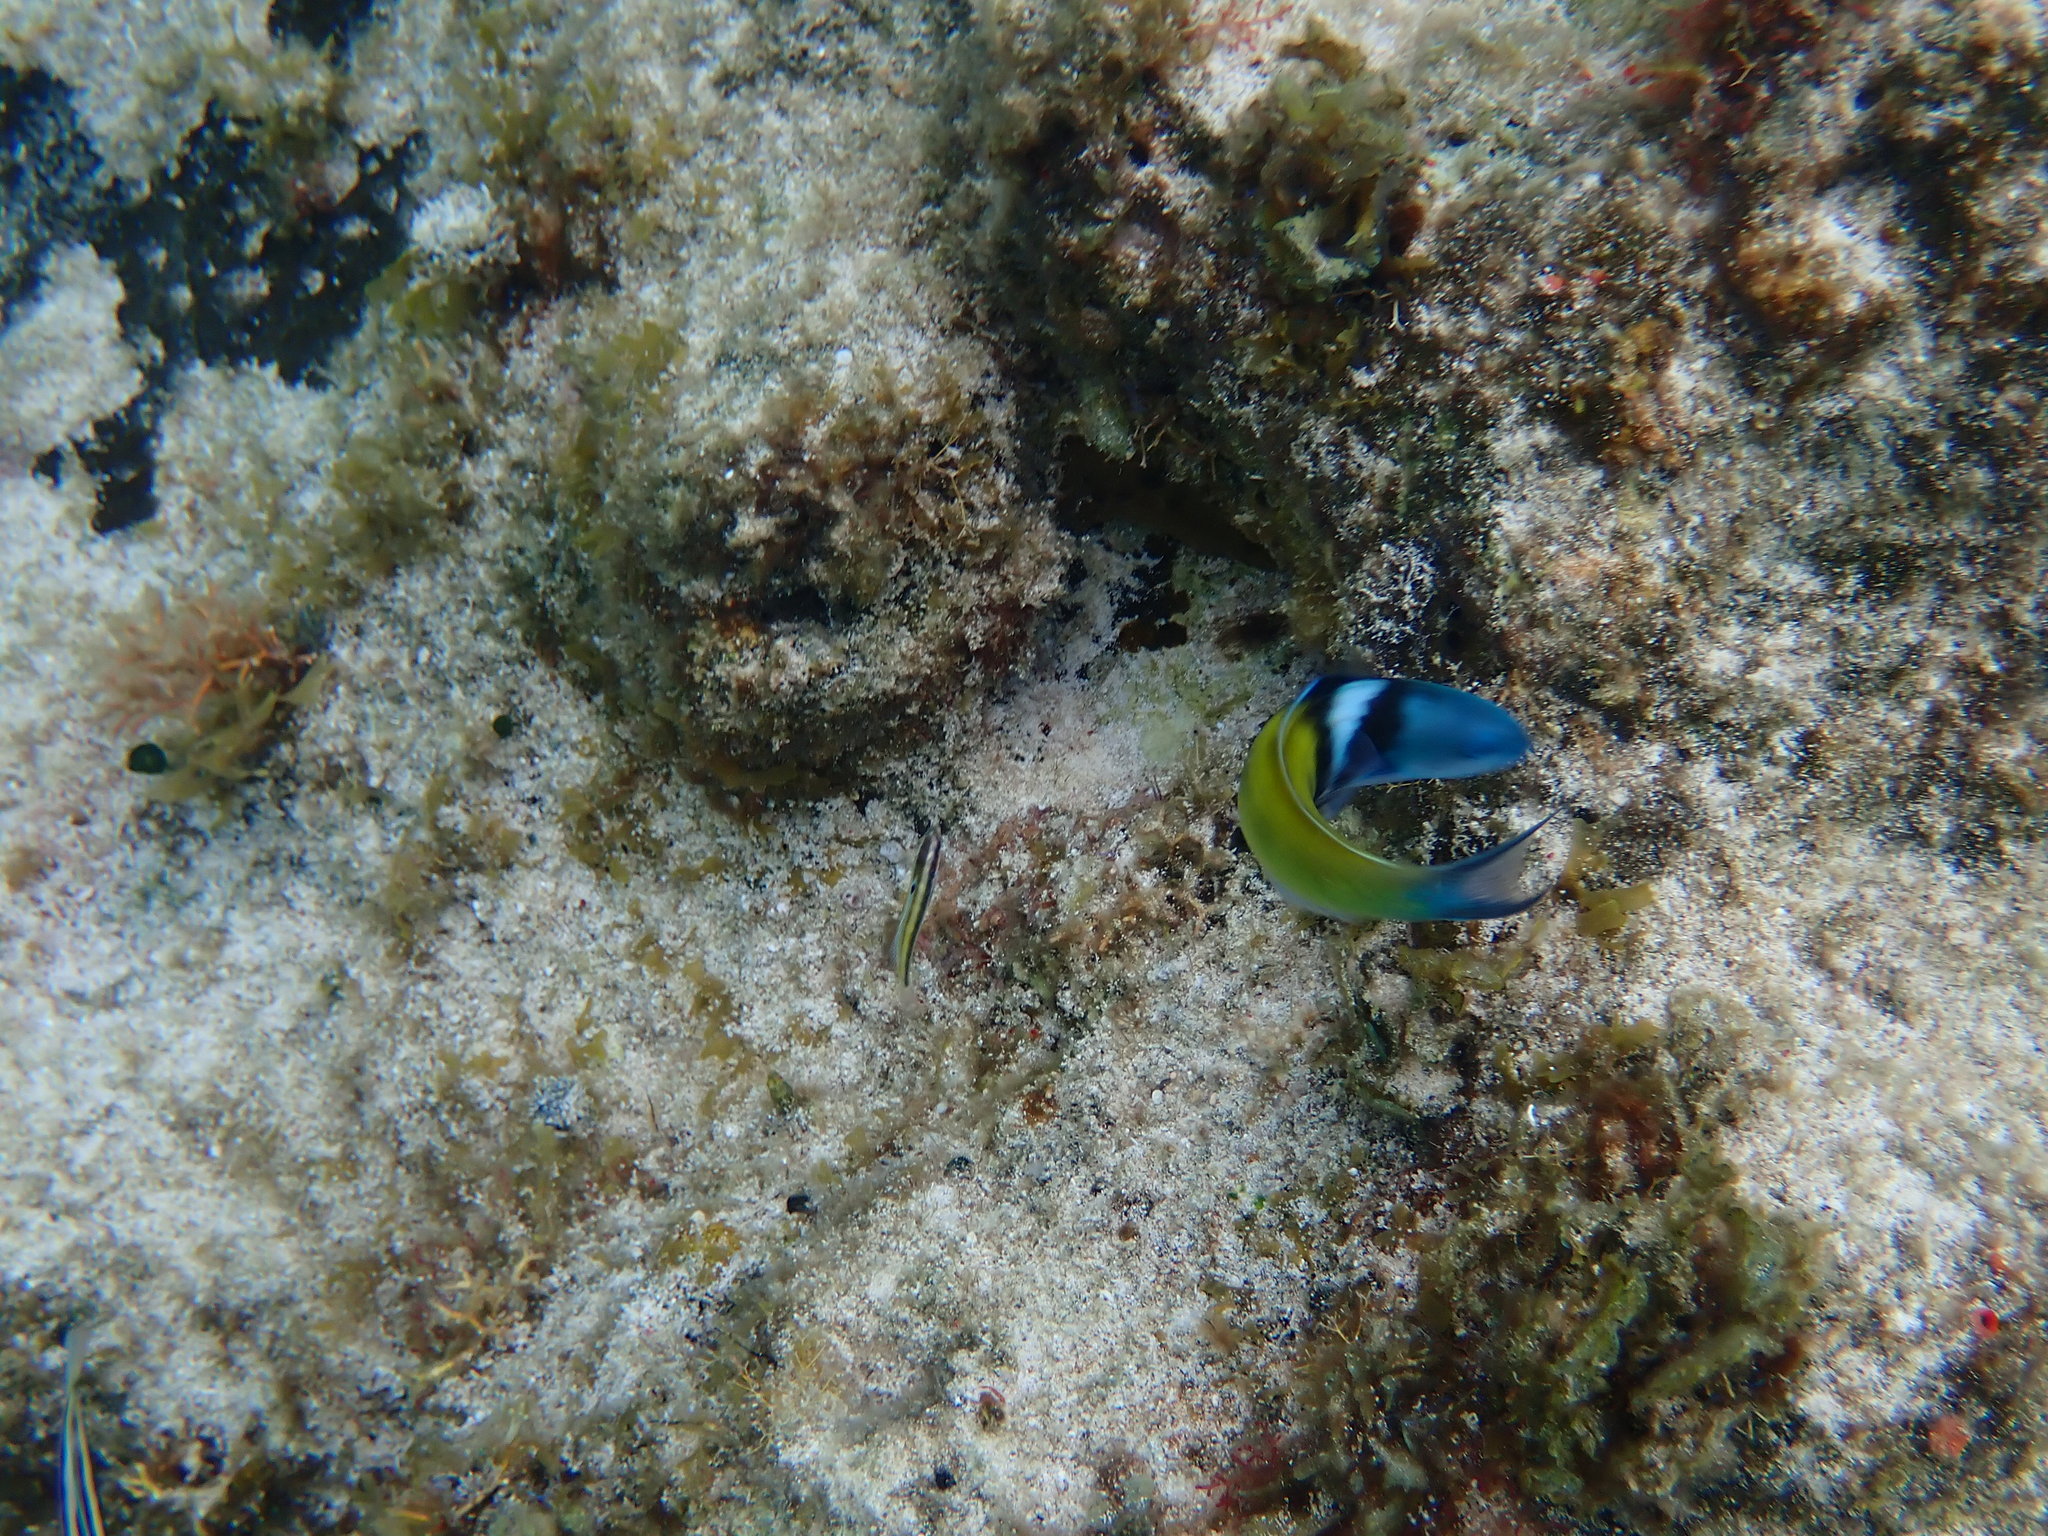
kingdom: Animalia
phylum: Chordata
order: Perciformes
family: Labridae
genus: Thalassoma
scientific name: Thalassoma bifasciatum
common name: Bluehead wrasse
